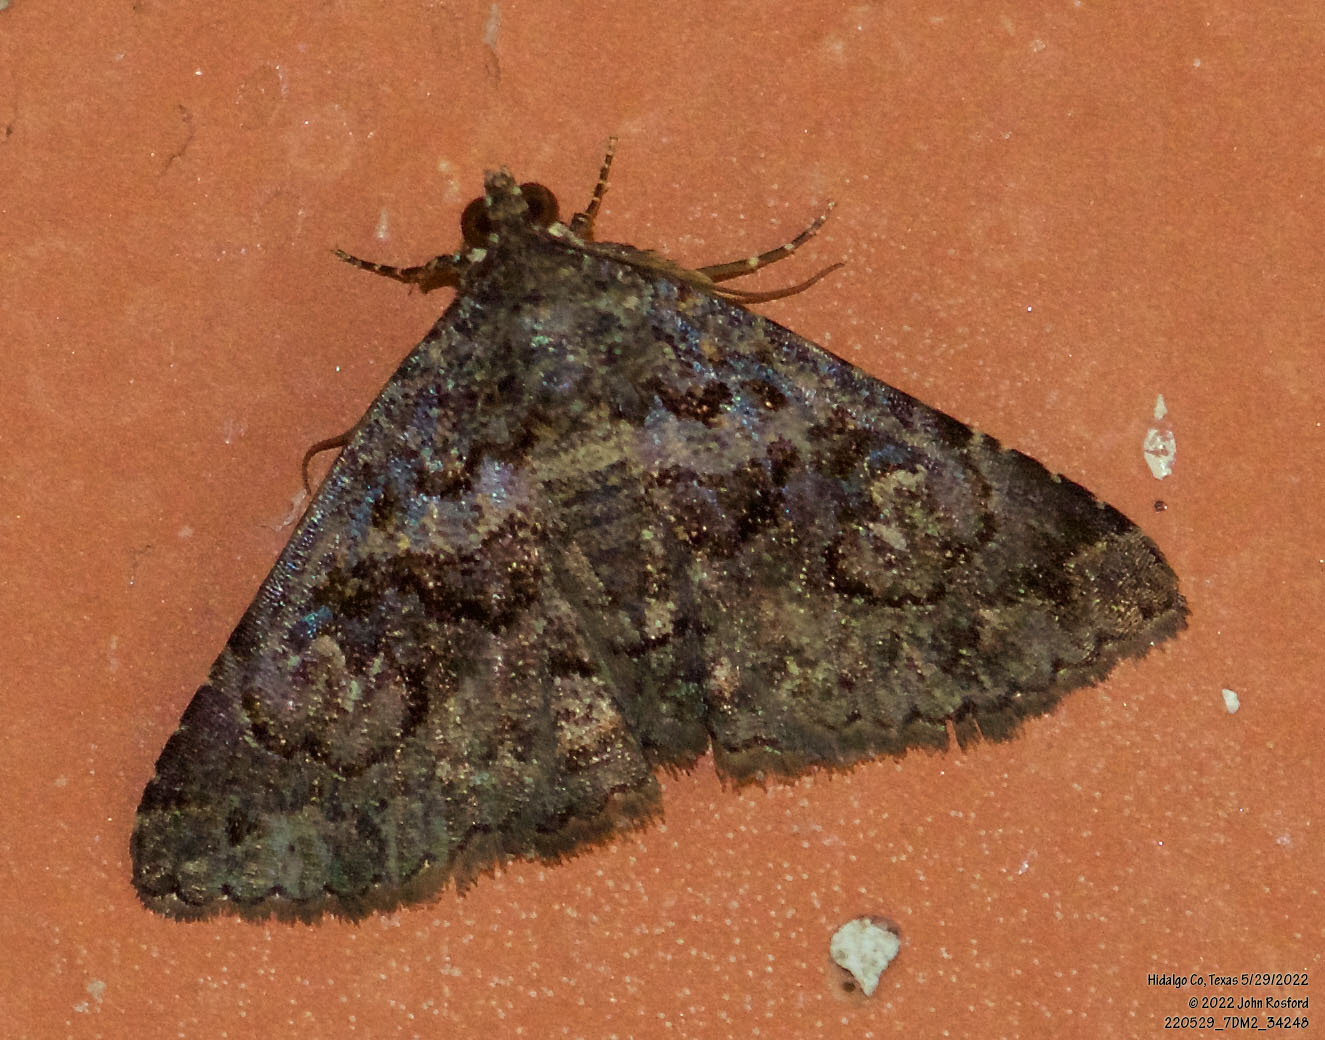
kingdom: Animalia
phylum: Arthropoda
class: Insecta
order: Lepidoptera
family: Erebidae
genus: Toxonprucha
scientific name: Toxonprucha excavata
